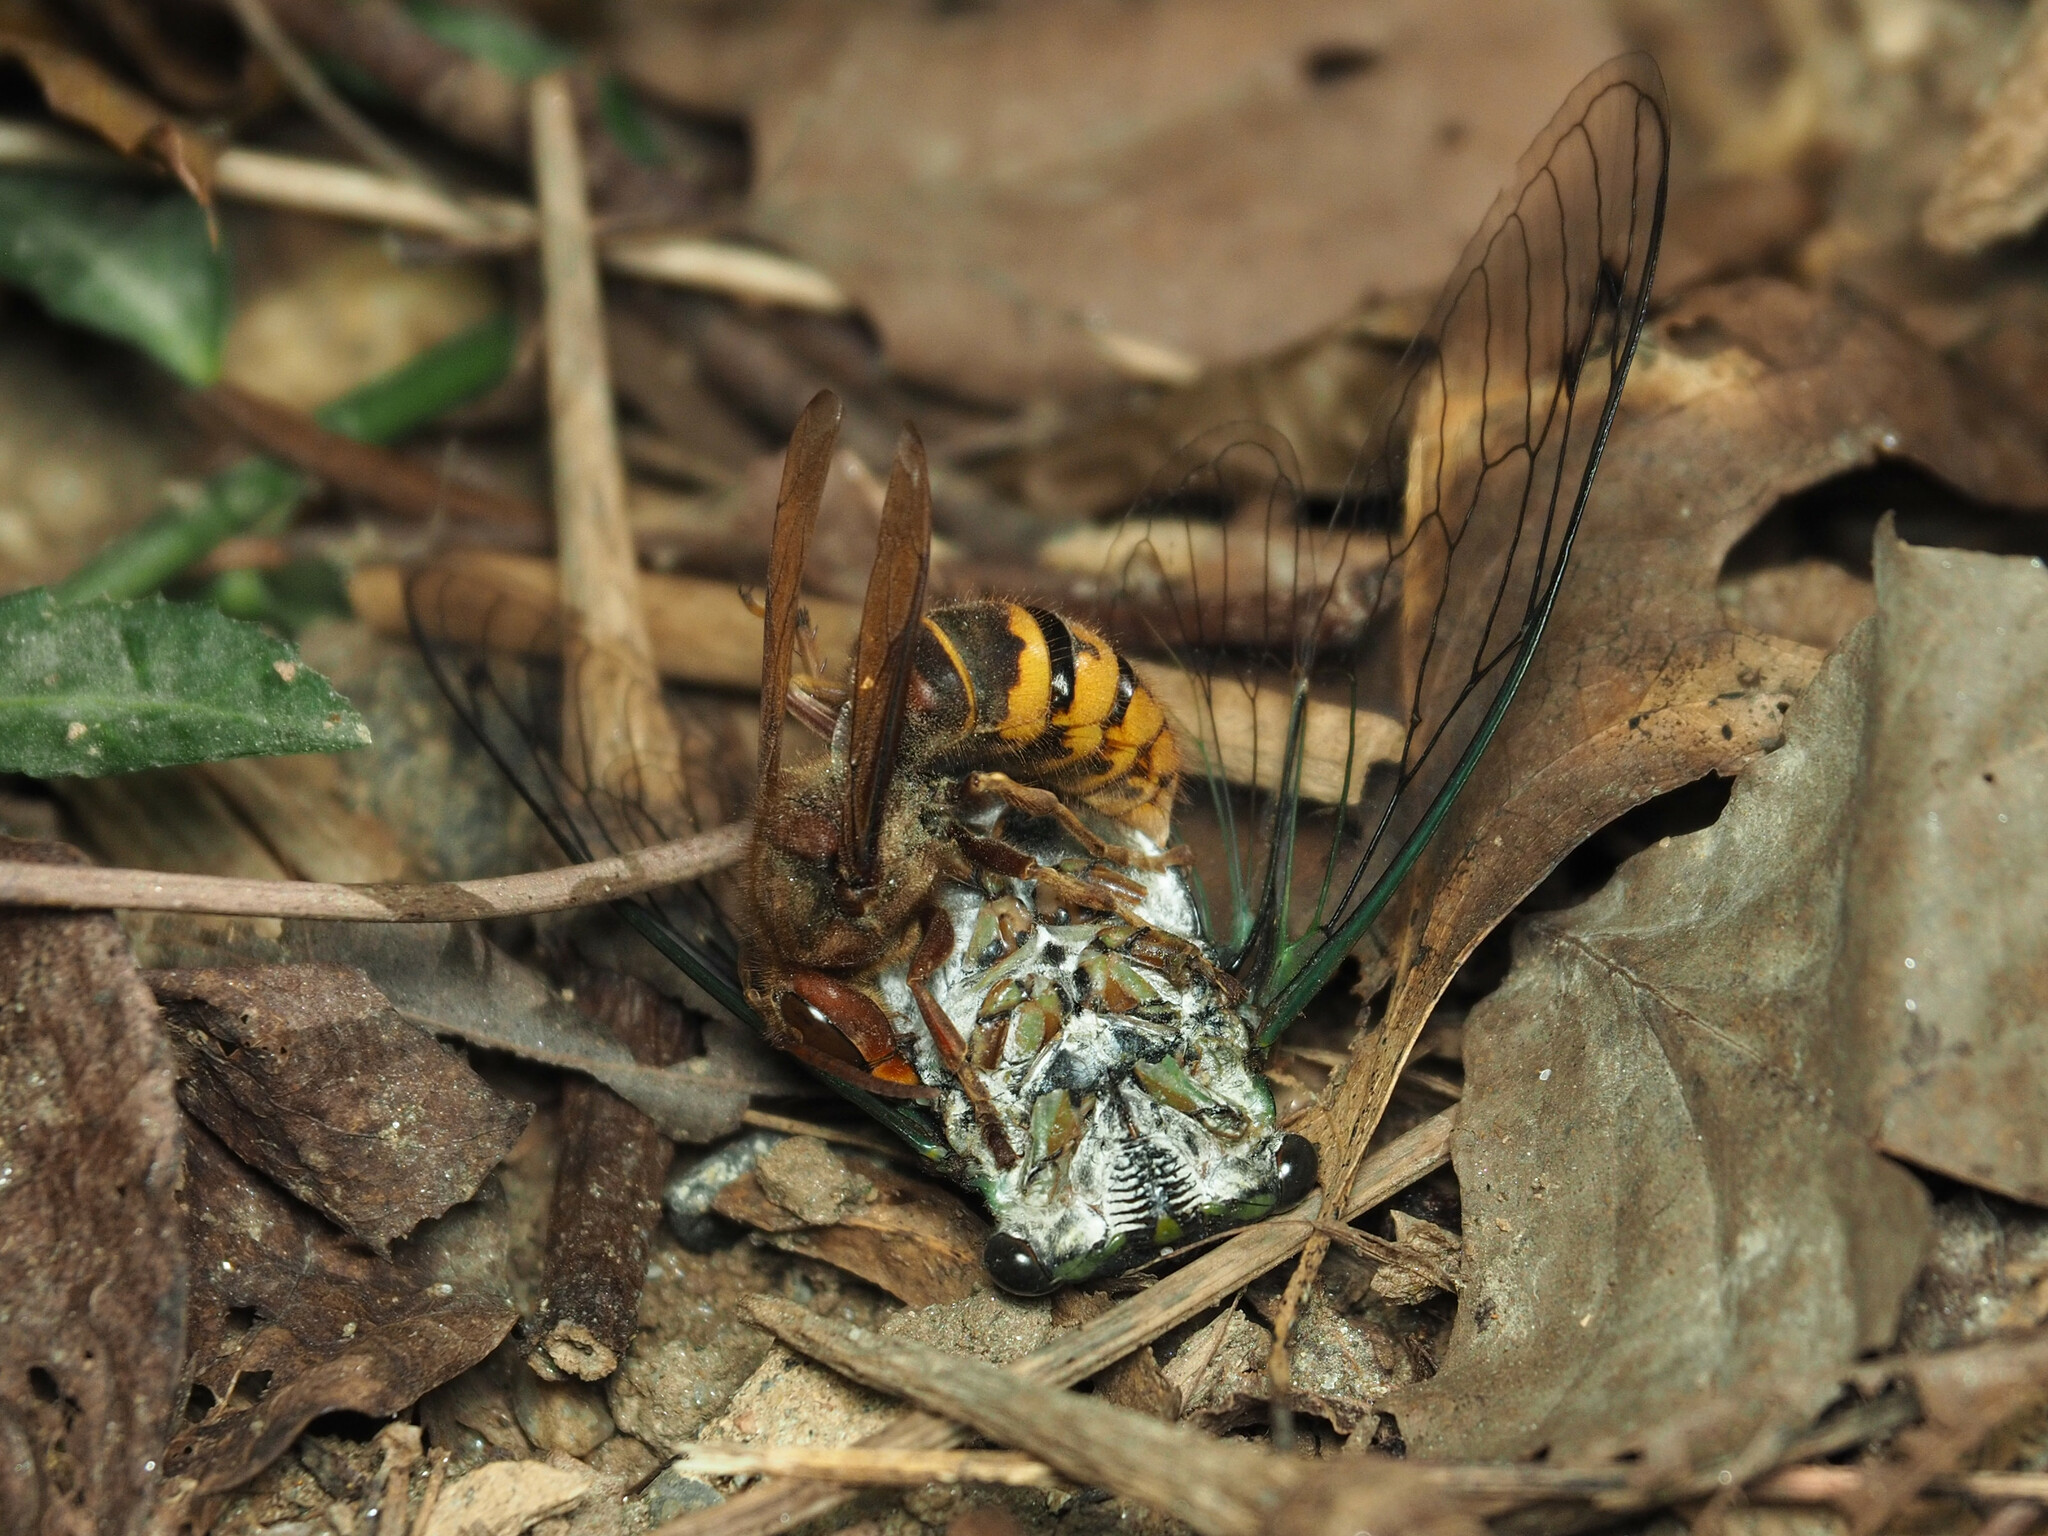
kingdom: Animalia
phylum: Arthropoda
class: Insecta
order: Hymenoptera
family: Vespidae
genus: Vespa
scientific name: Vespa crabro
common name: Hornet
